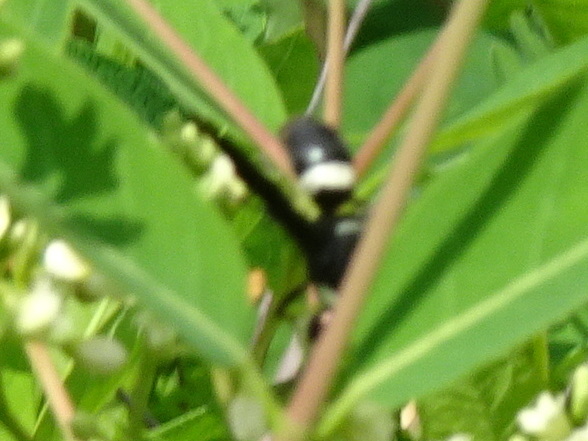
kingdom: Animalia
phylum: Arthropoda
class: Insecta
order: Hymenoptera
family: Eumenidae
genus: Monobia
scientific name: Monobia quadridens
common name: Four-toothed mason wasp
